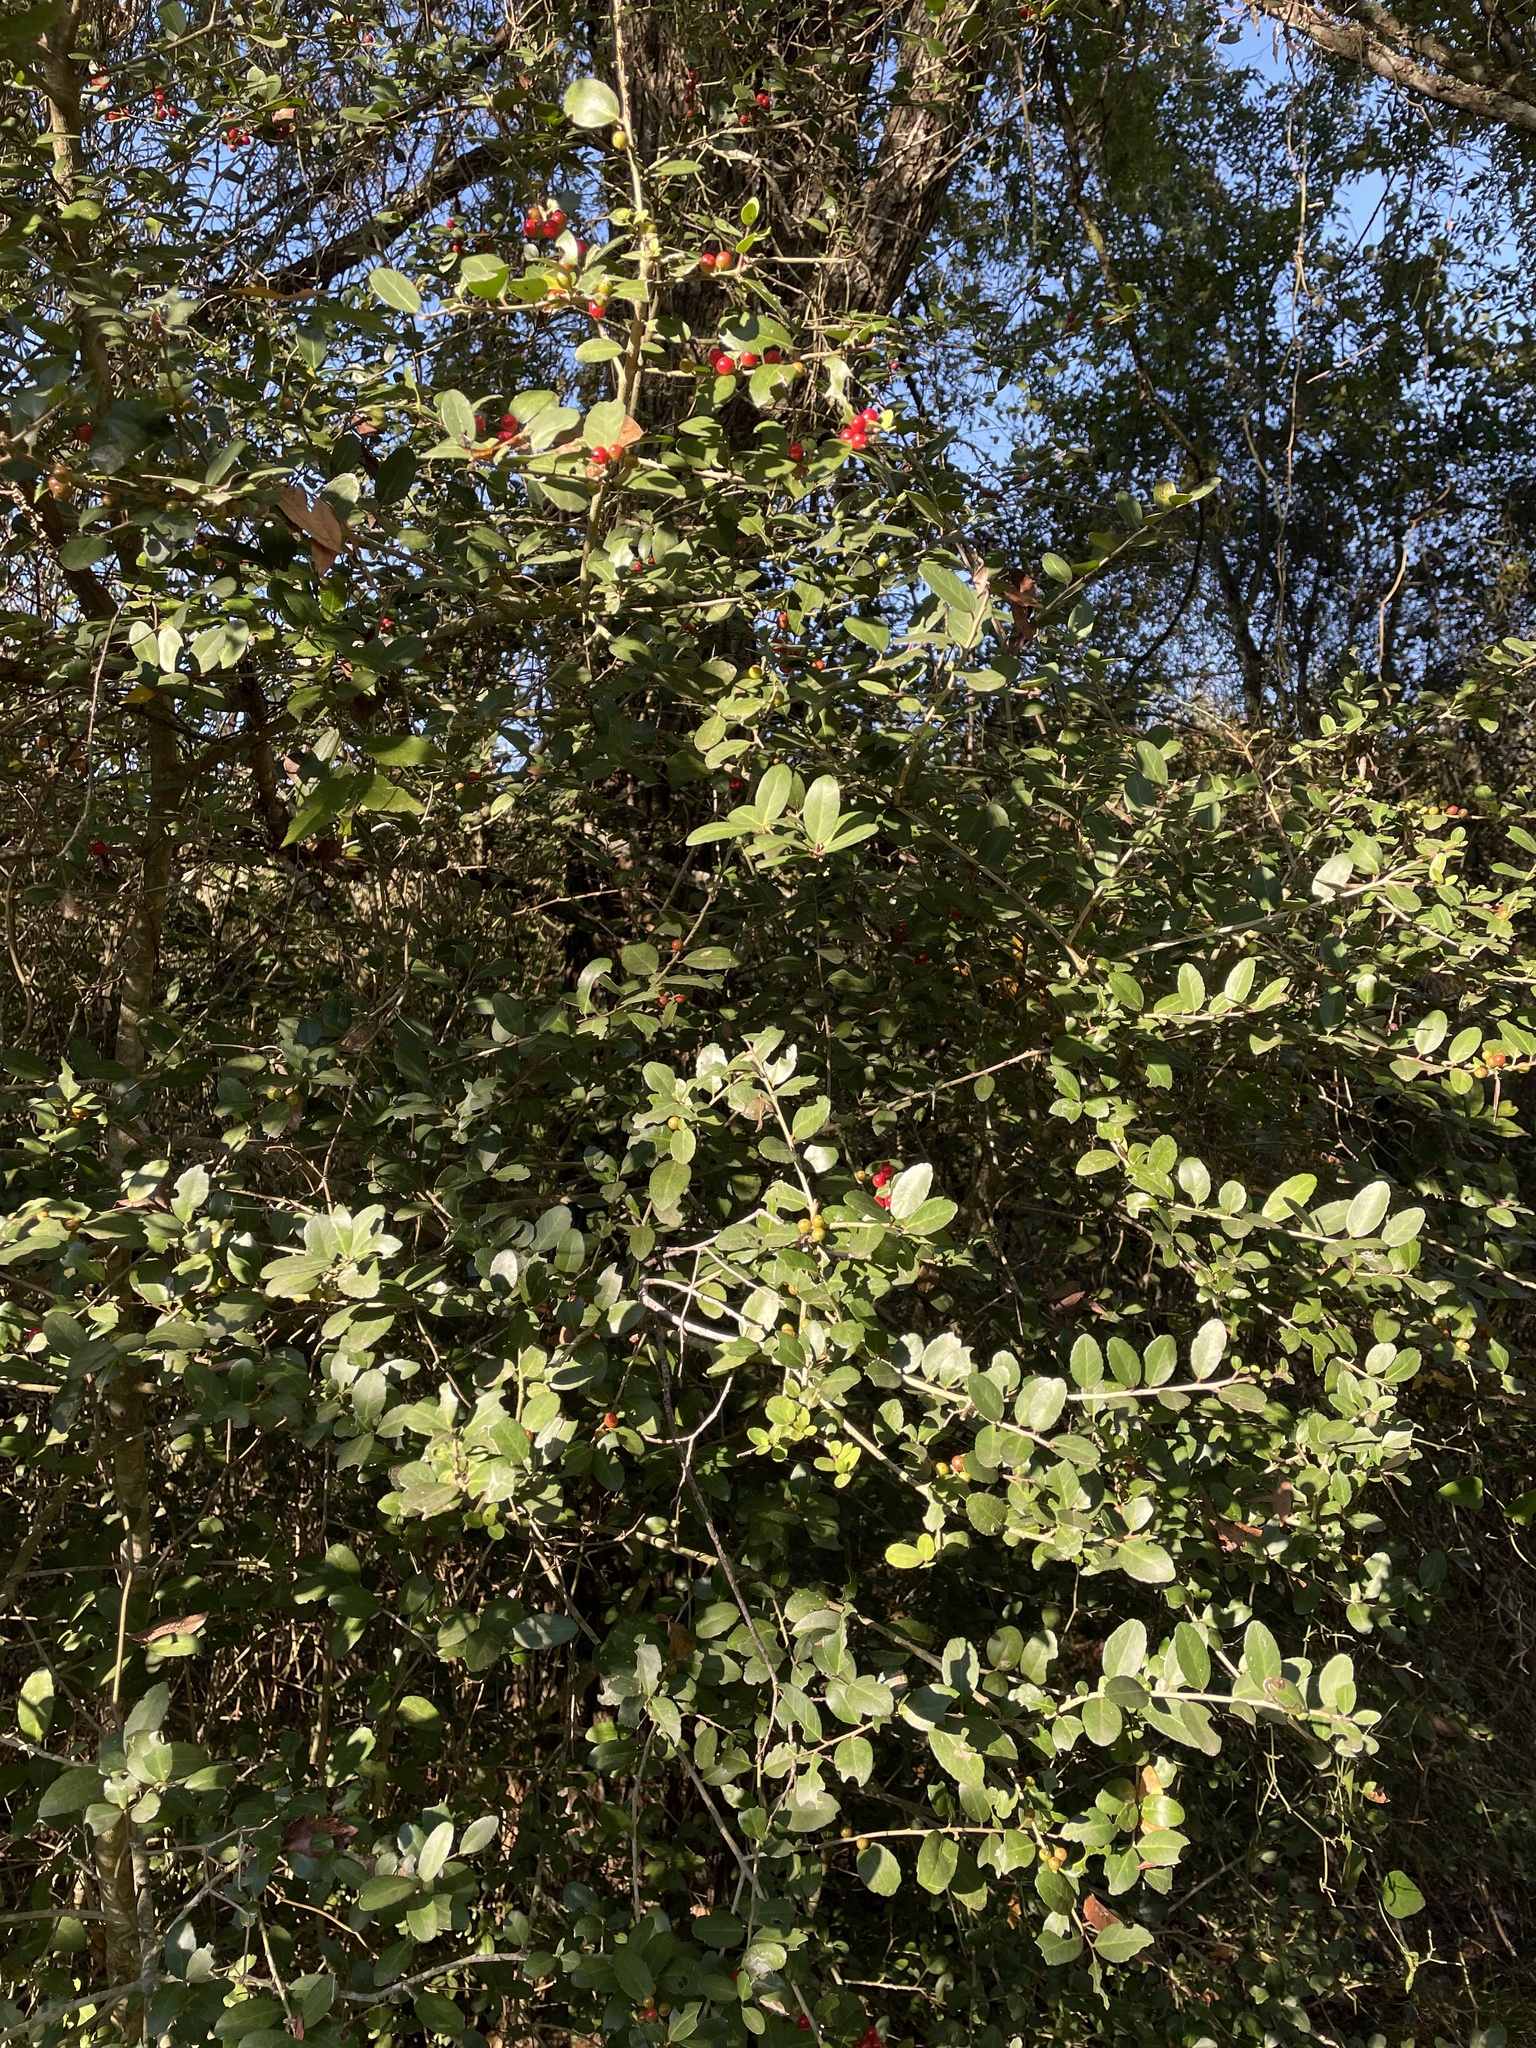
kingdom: Plantae
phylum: Tracheophyta
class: Magnoliopsida
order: Aquifoliales
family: Aquifoliaceae
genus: Ilex
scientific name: Ilex vomitoria
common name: Yaupon holly
